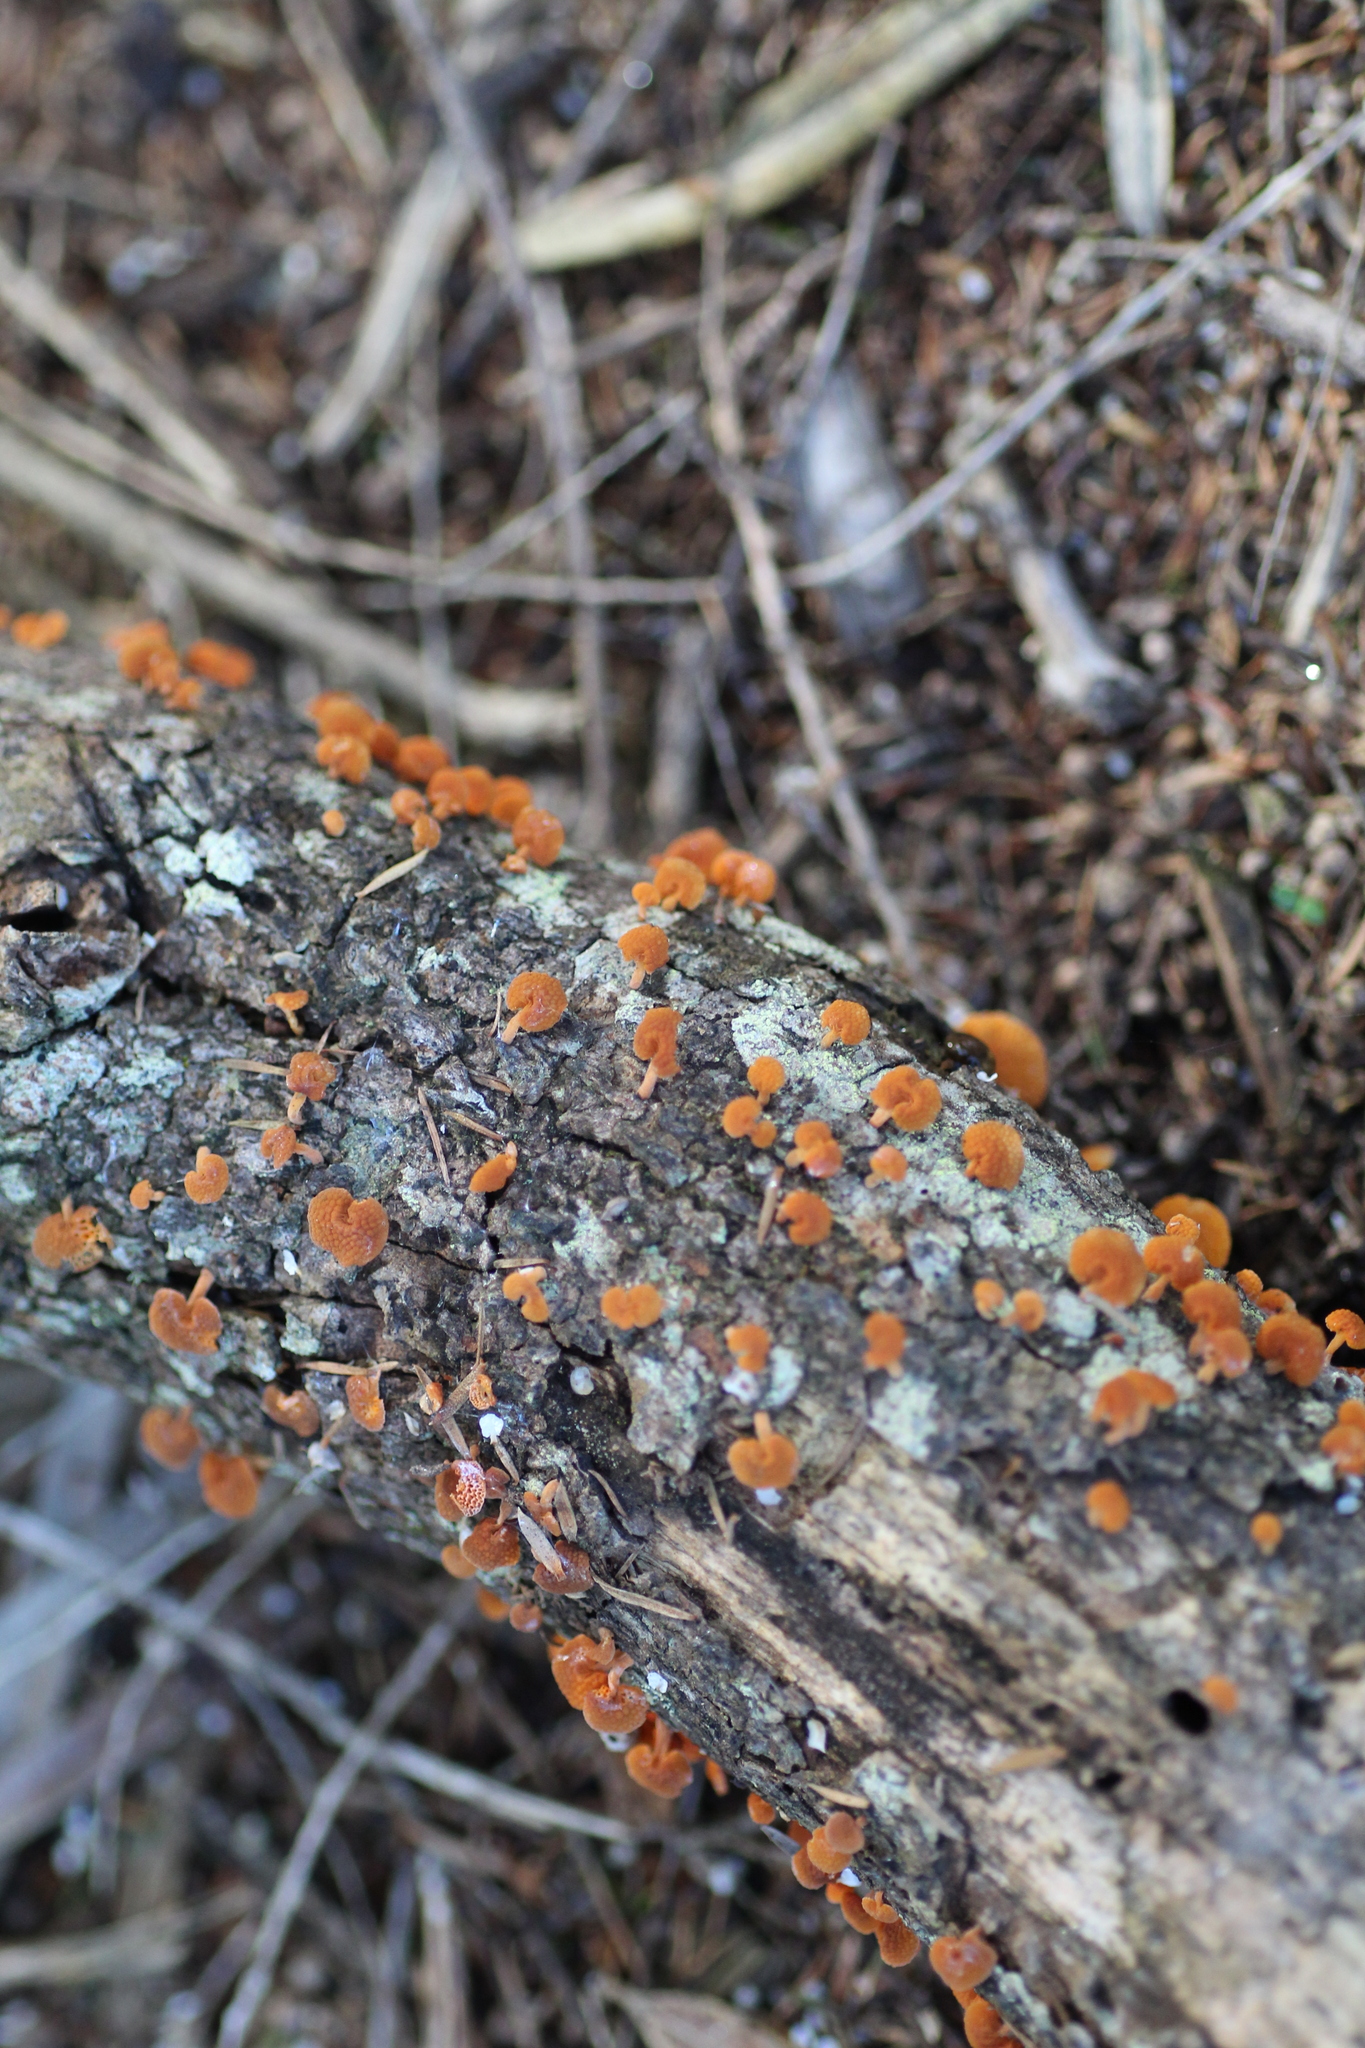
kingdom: Fungi
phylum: Basidiomycota
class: Agaricomycetes
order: Agaricales
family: Mycenaceae
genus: Favolaschia
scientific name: Favolaschia claudopus
